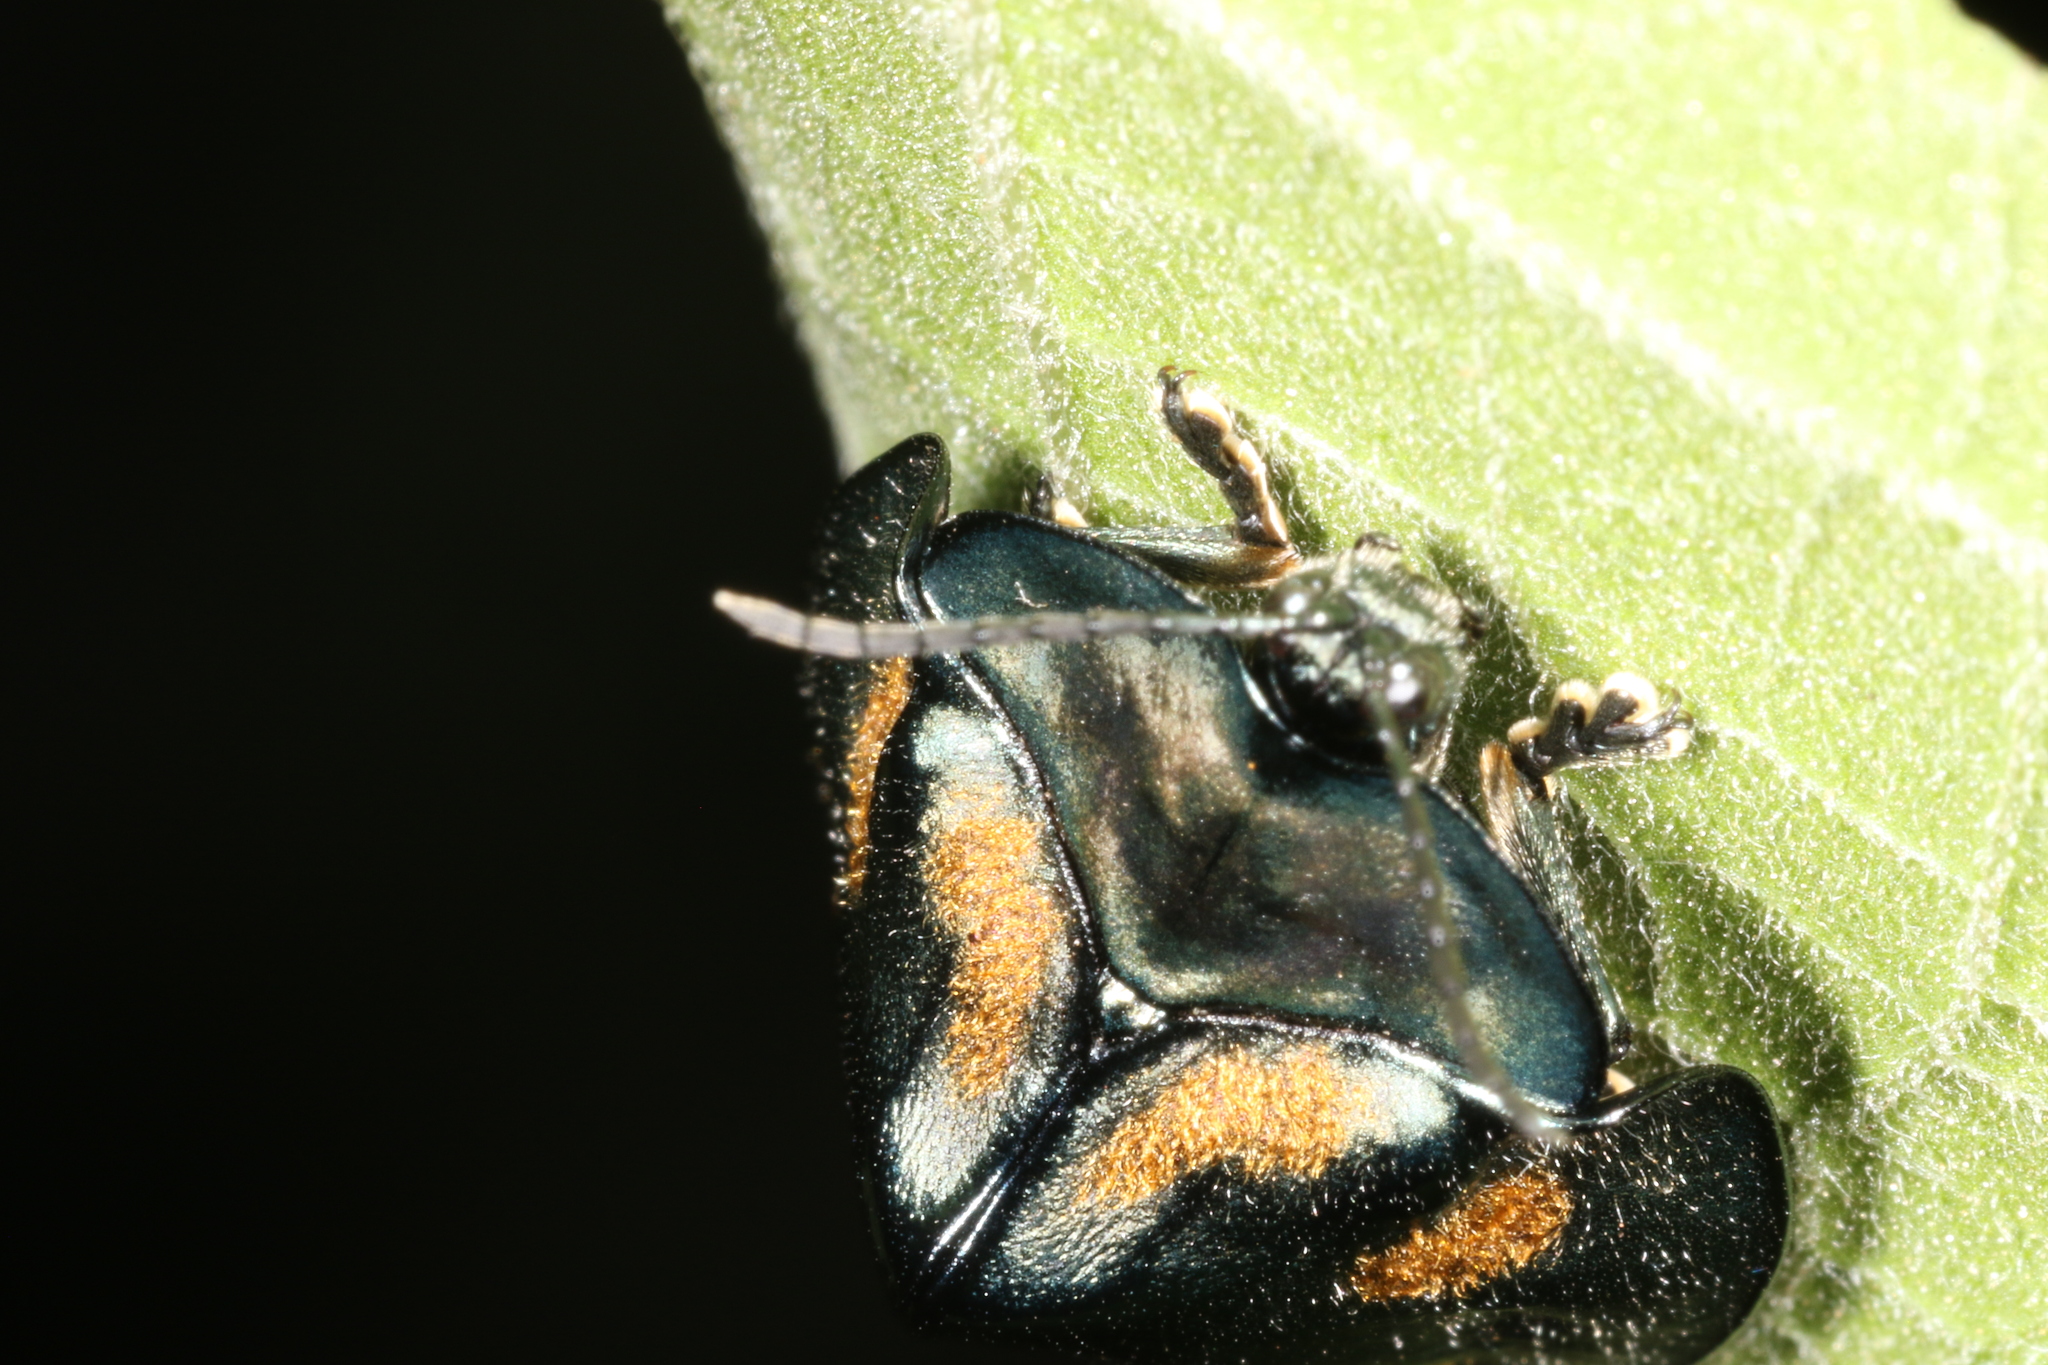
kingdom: Animalia
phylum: Arthropoda
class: Insecta
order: Coleoptera
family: Chrysomelidae
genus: Stolas
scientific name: Stolas chalybaea
